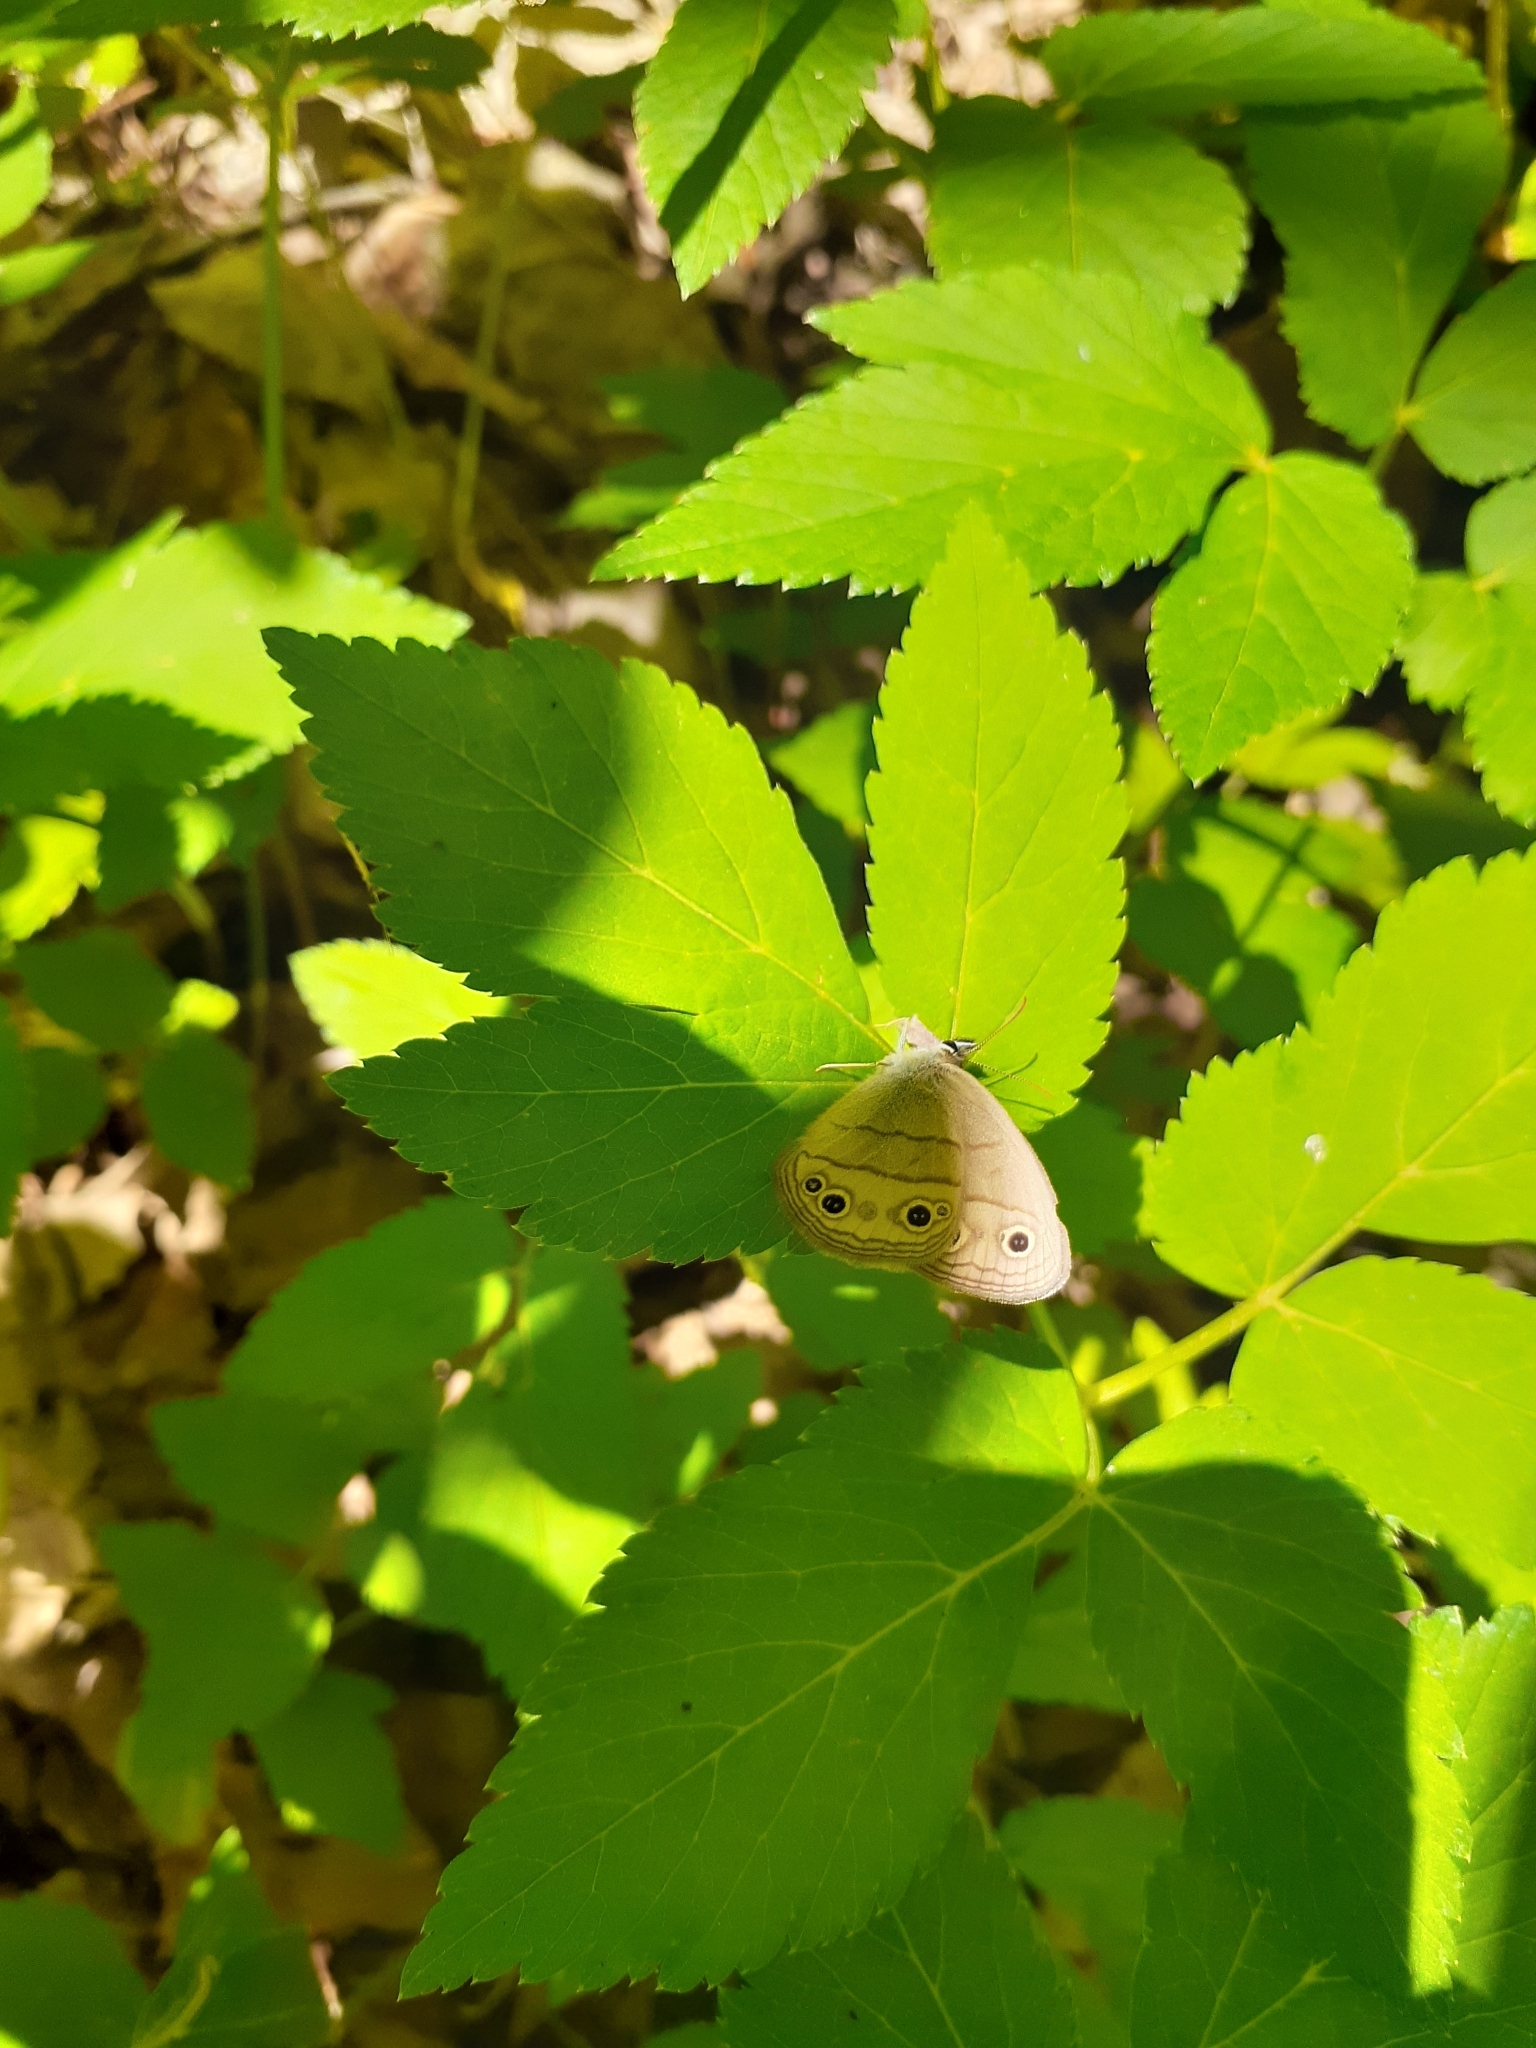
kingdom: Animalia
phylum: Arthropoda
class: Insecta
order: Lepidoptera
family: Nymphalidae
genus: Euptychia
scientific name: Euptychia cymela
